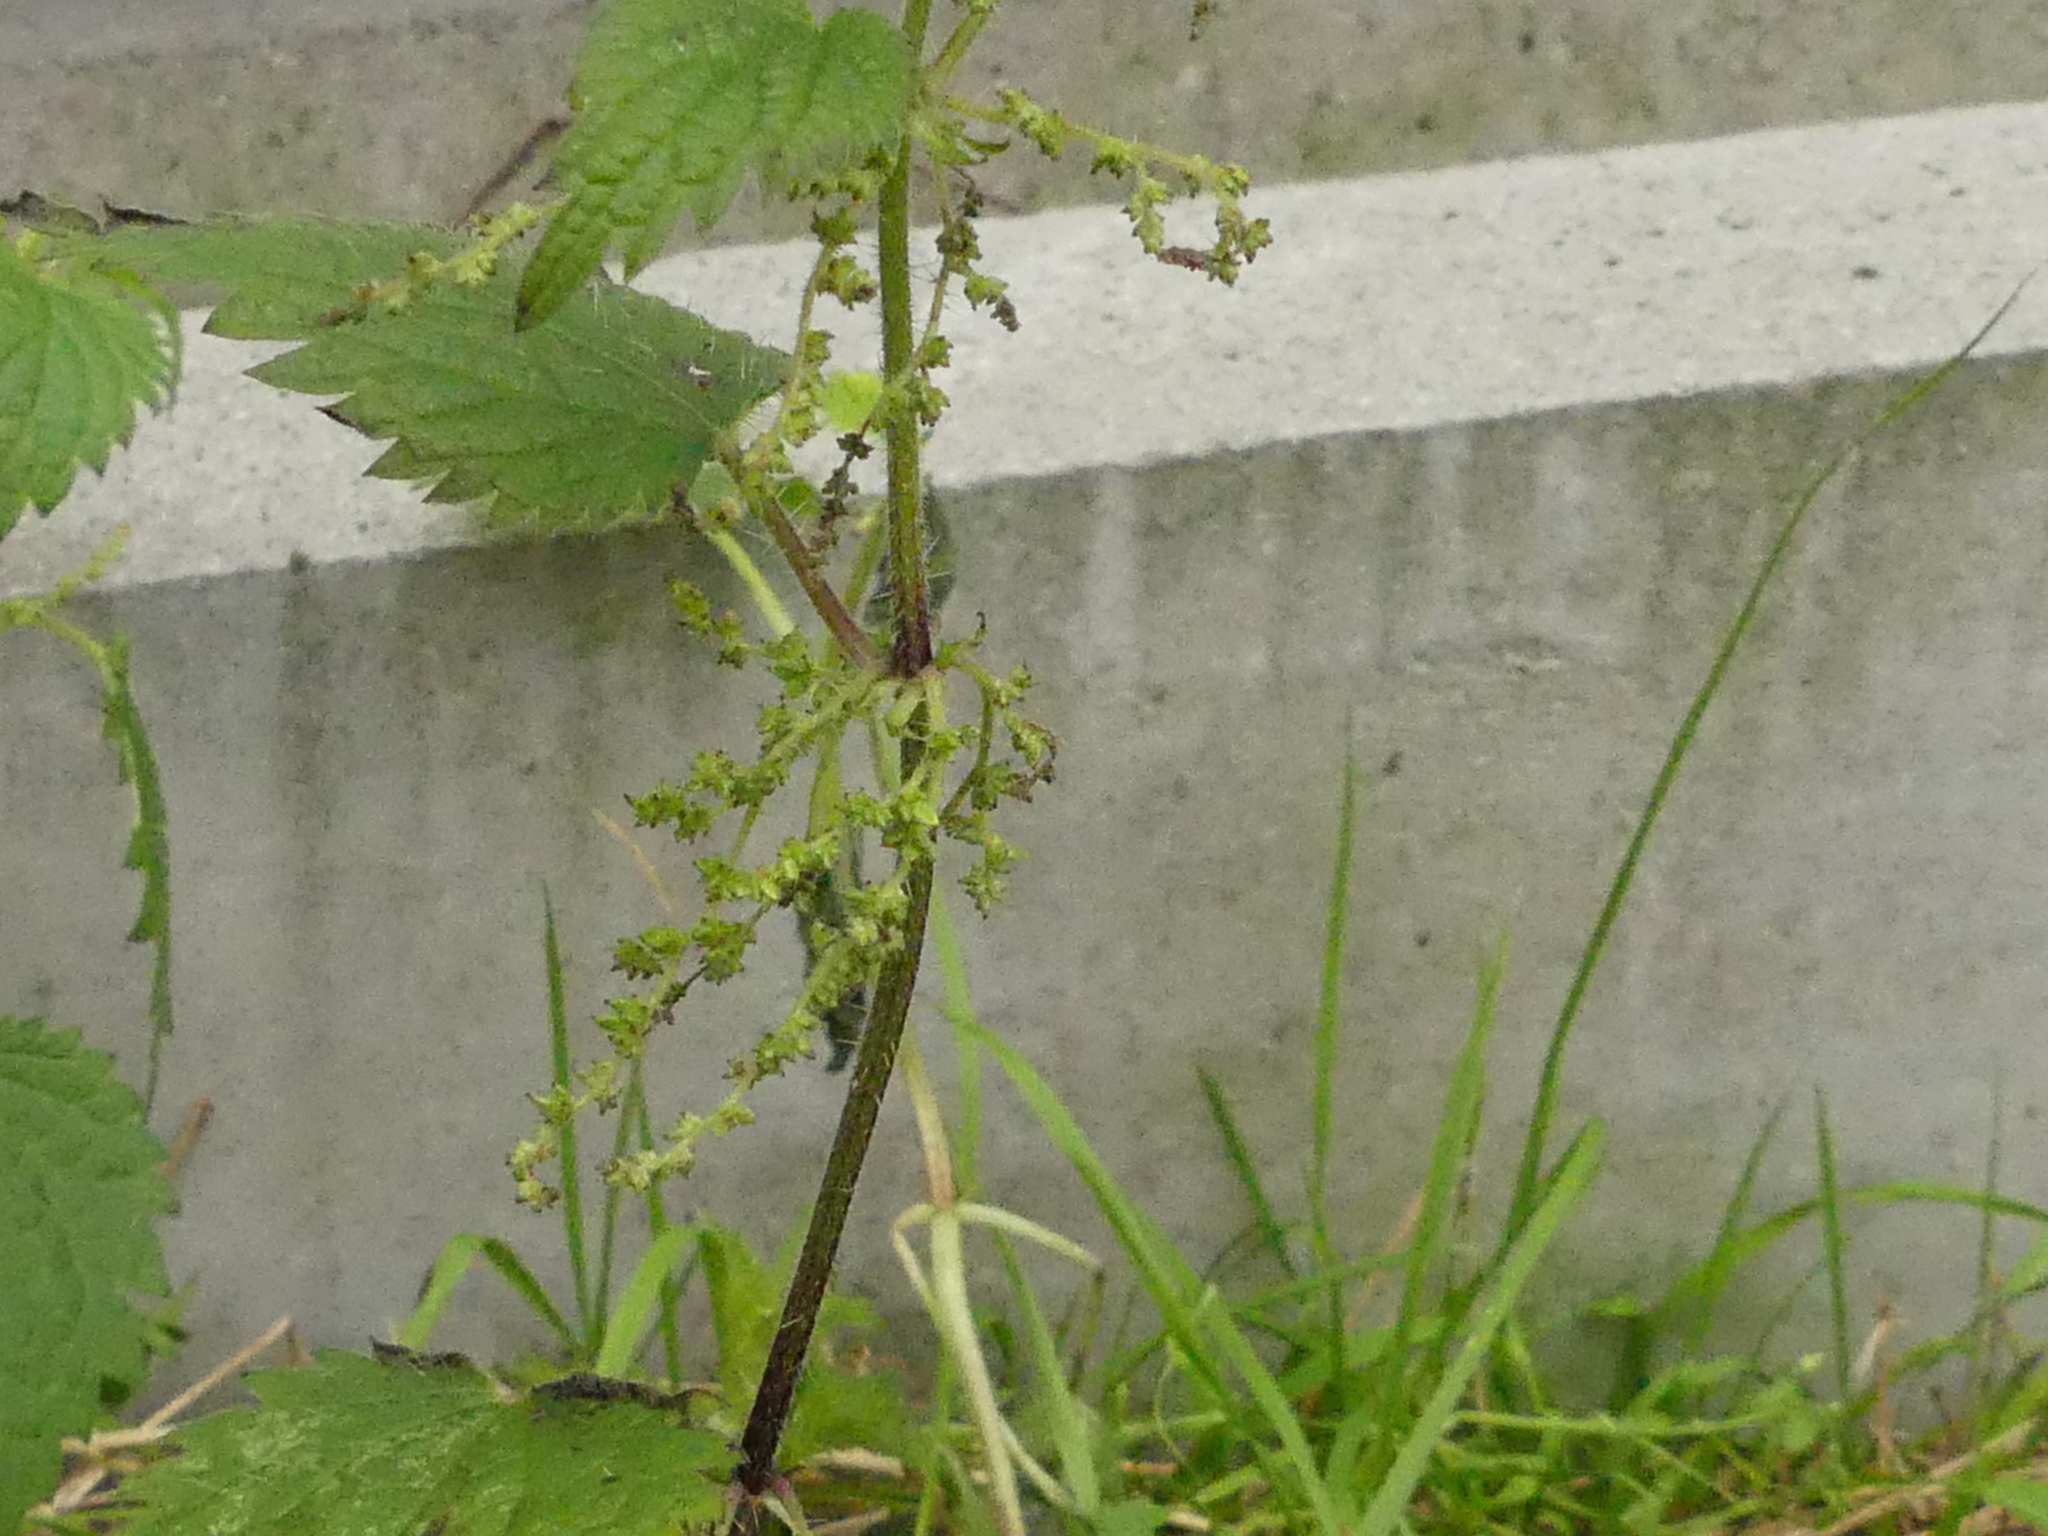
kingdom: Plantae
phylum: Tracheophyta
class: Magnoliopsida
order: Rosales
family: Urticaceae
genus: Urtica
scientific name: Urtica dioica
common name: Common nettle
